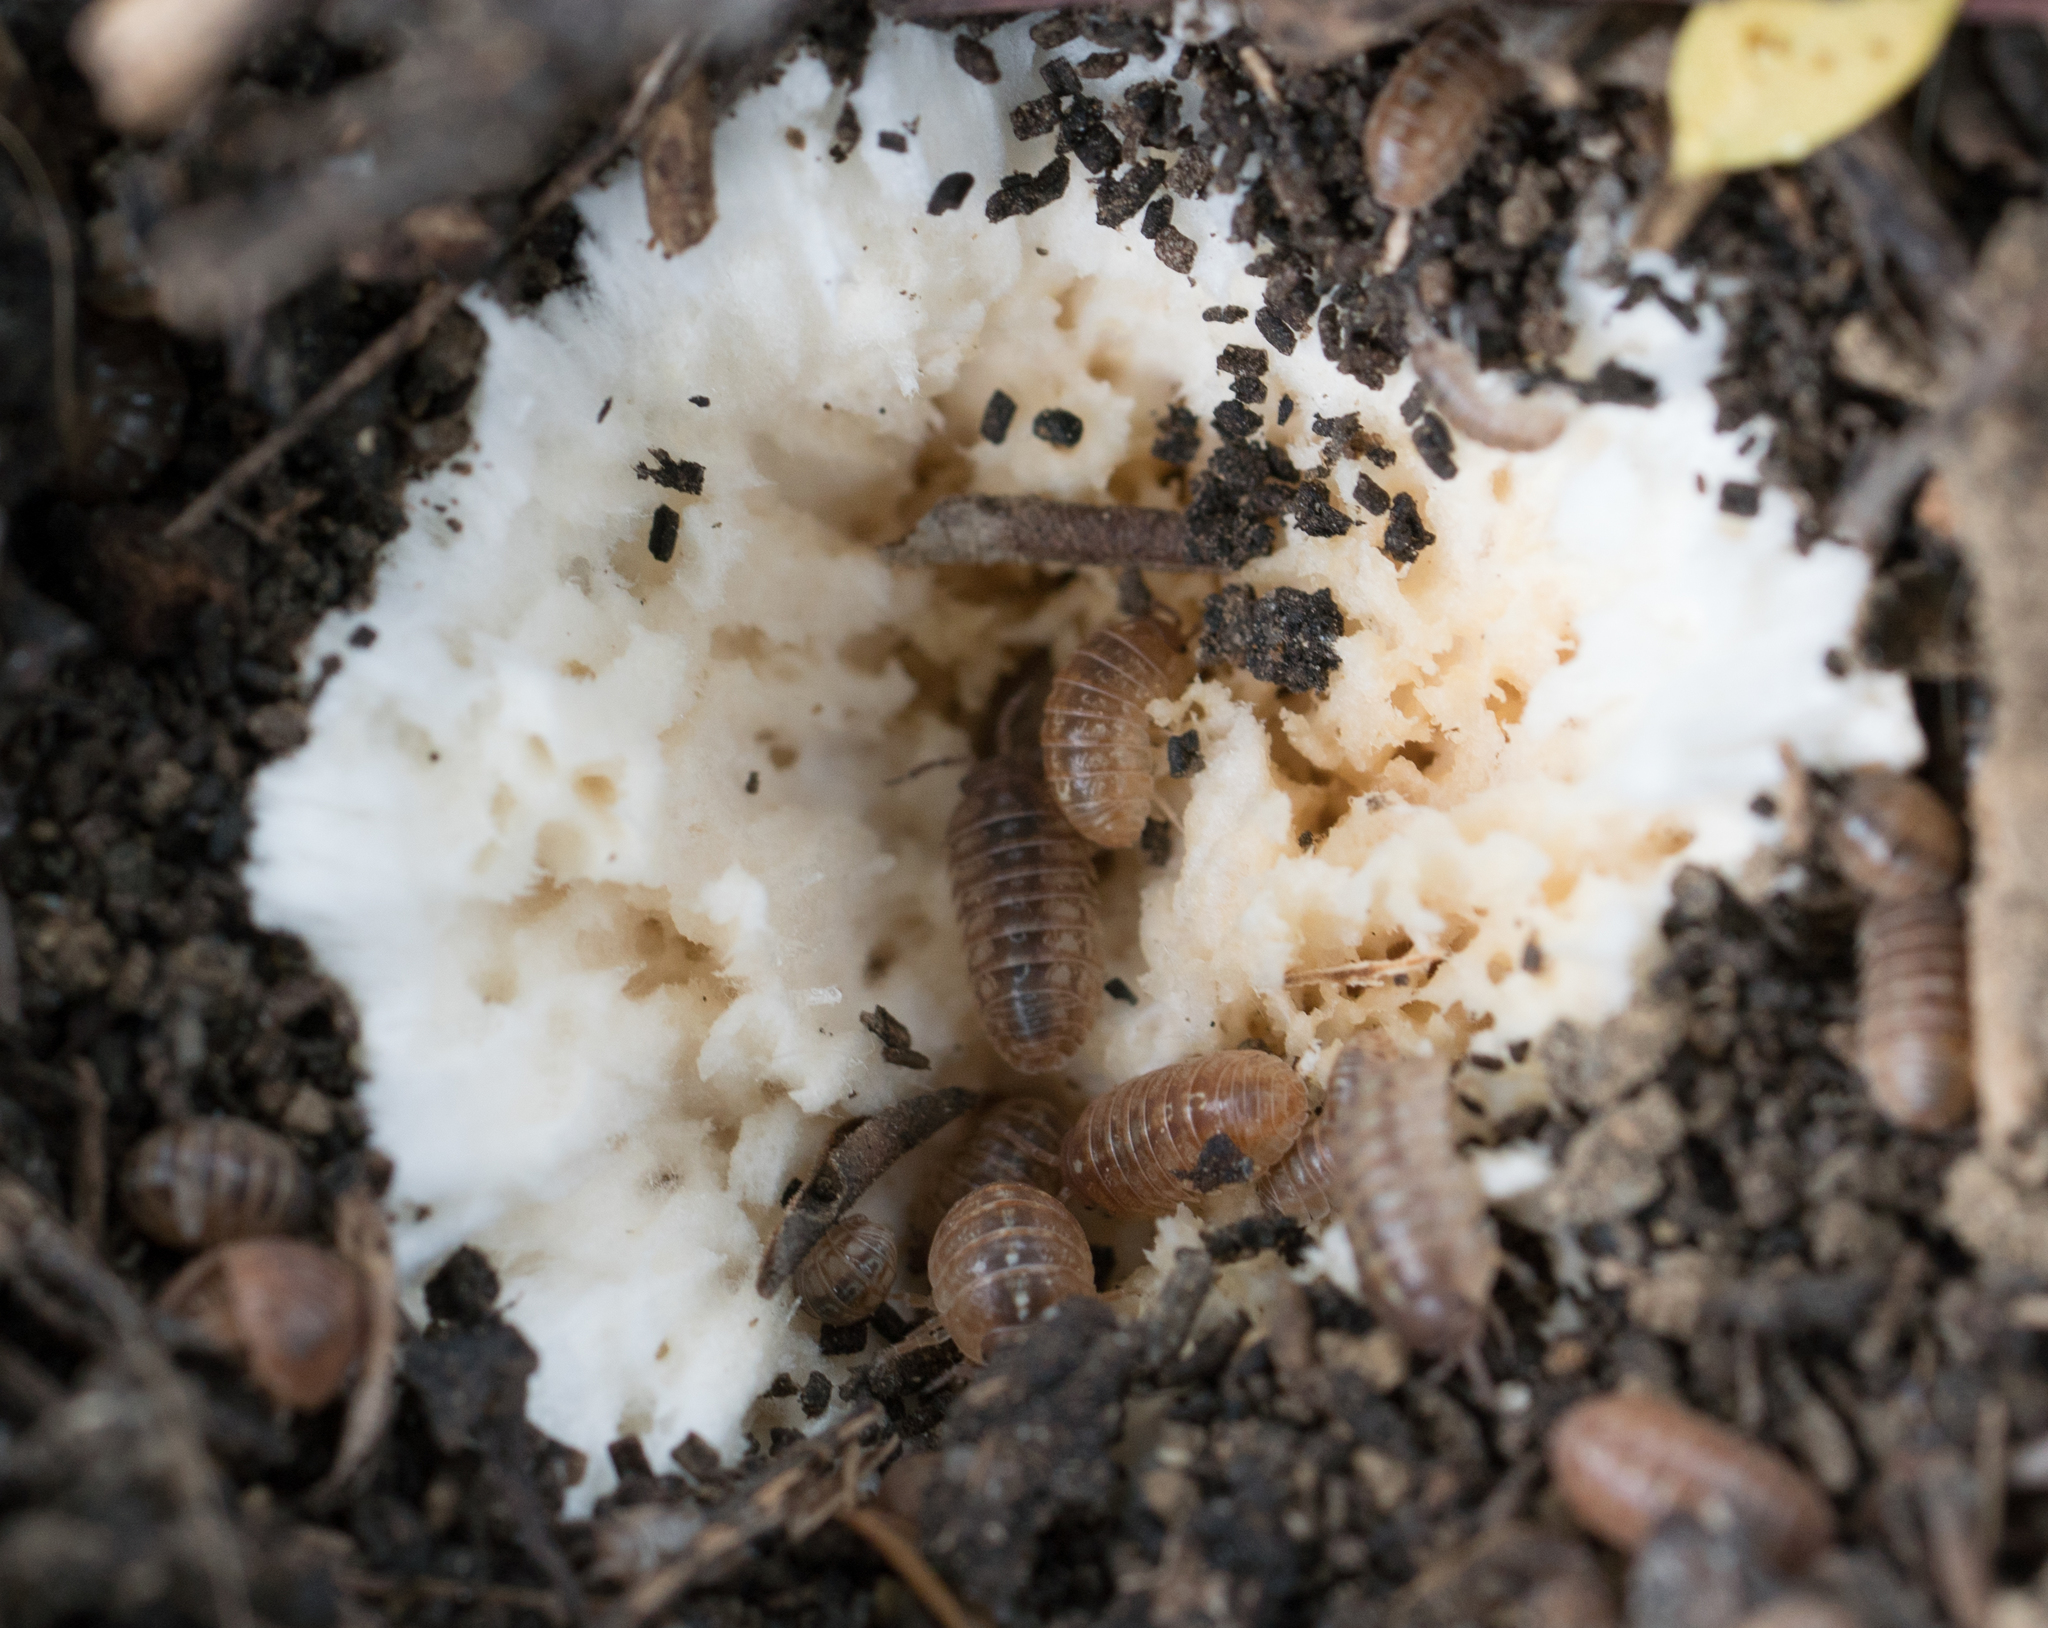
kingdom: Animalia
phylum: Arthropoda
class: Malacostraca
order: Isopoda
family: Armadillidiidae
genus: Armadillidium
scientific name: Armadillidium vulgare
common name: Common pill woodlouse
